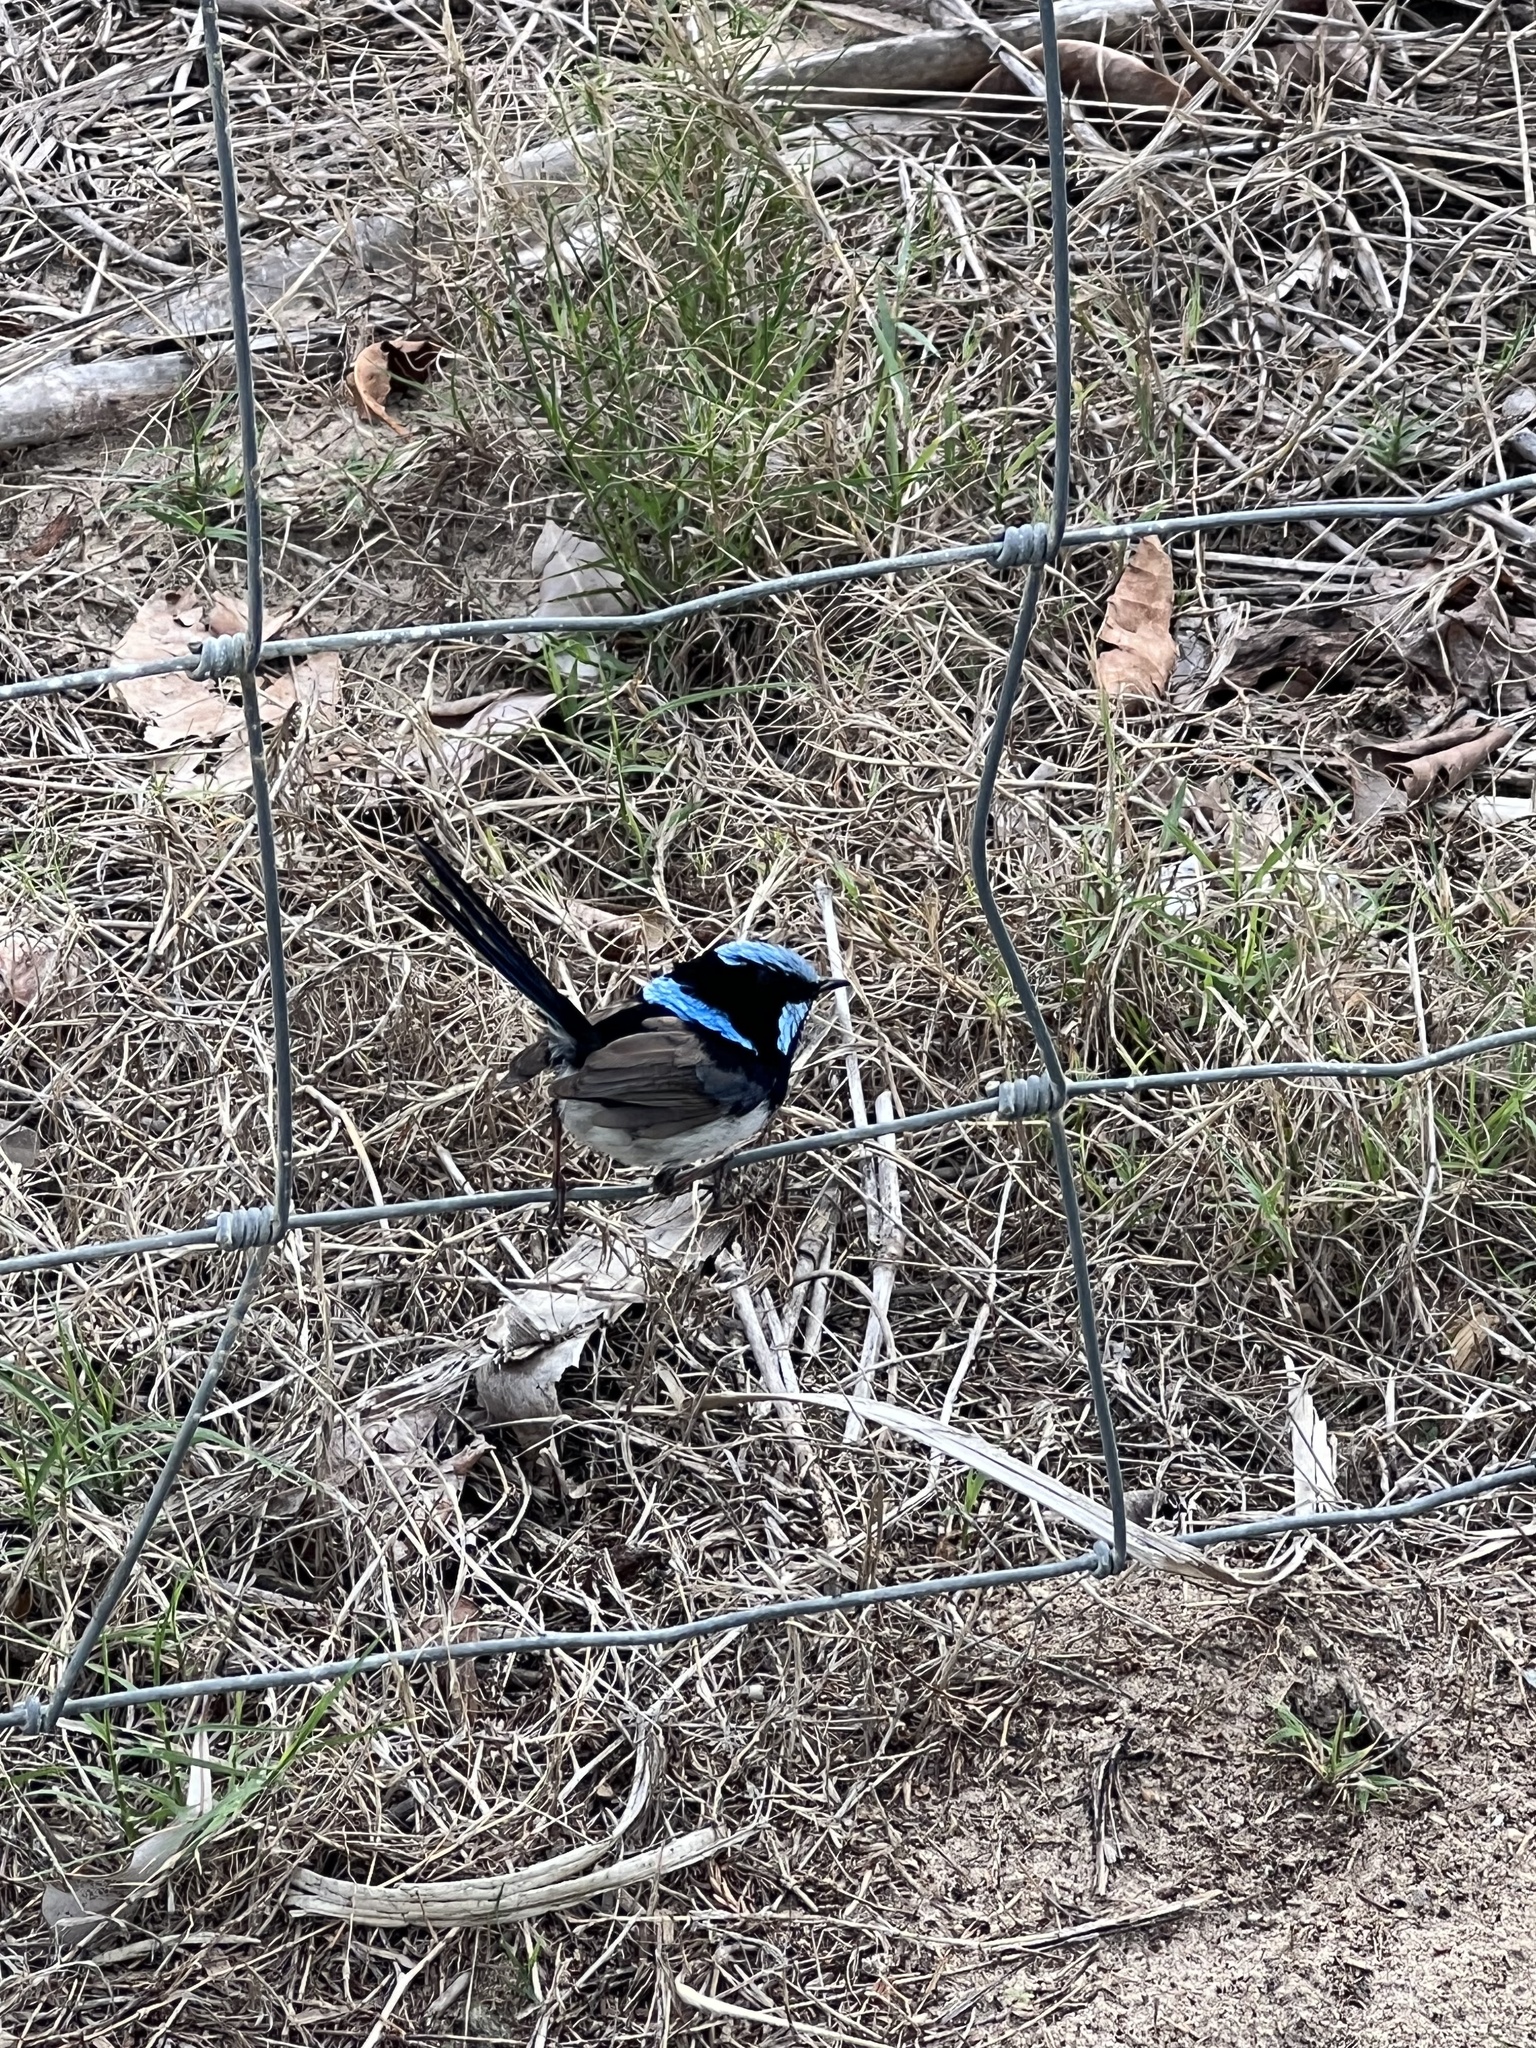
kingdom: Animalia
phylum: Chordata
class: Aves
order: Passeriformes
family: Maluridae
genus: Malurus
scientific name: Malurus cyaneus
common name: Superb fairywren
